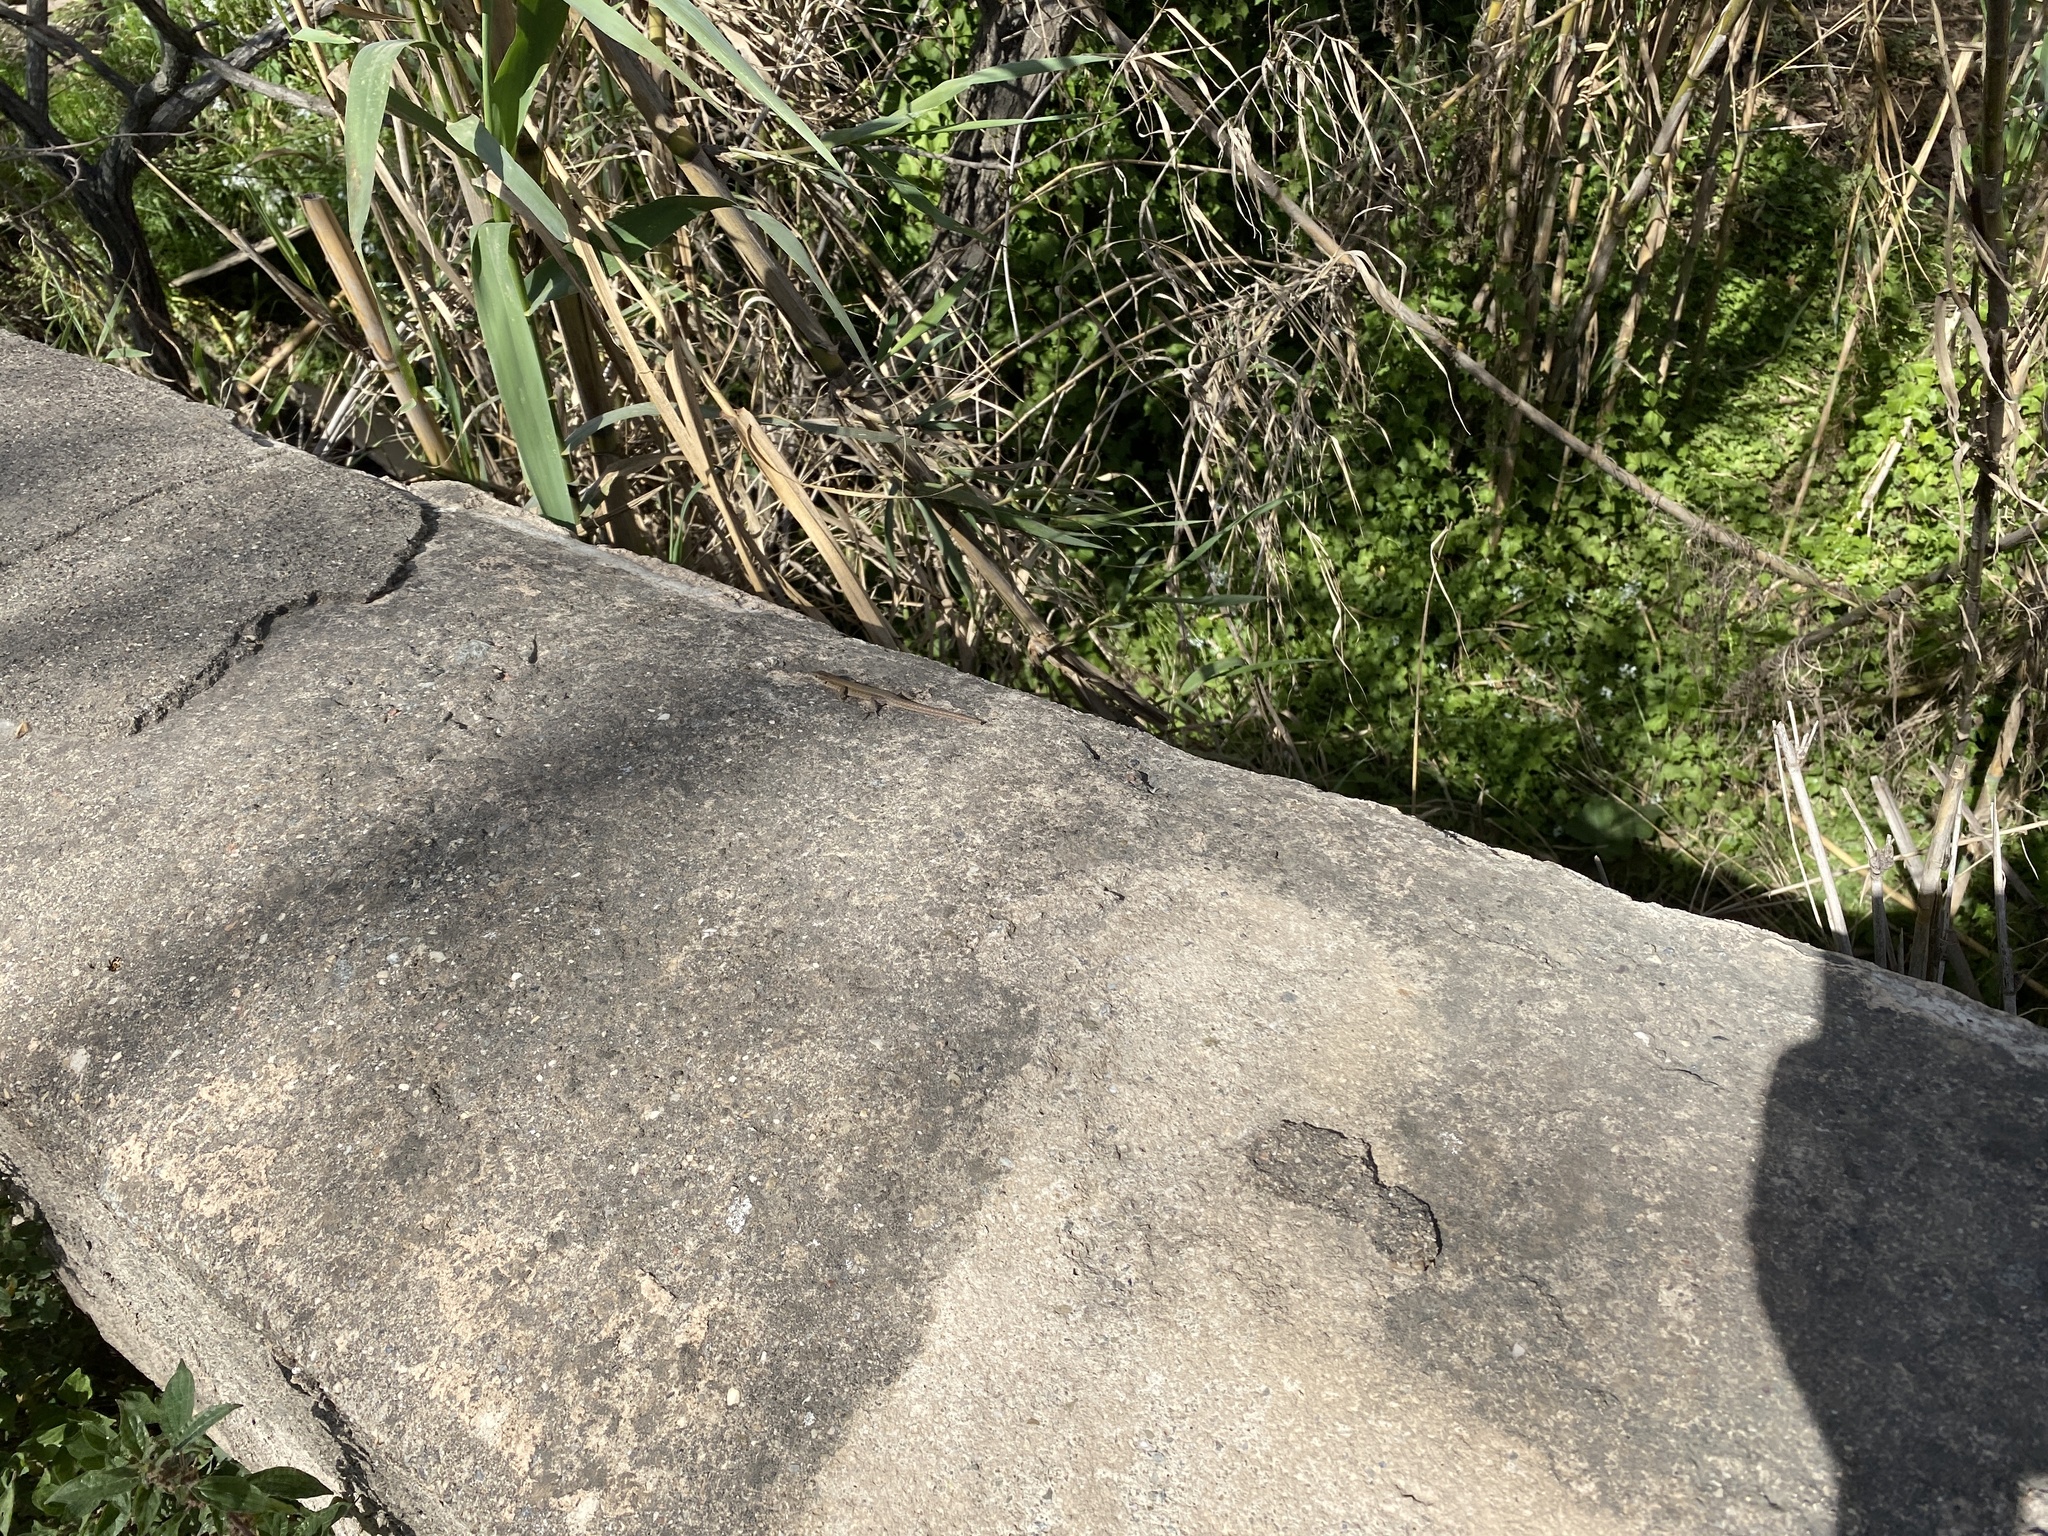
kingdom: Animalia
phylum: Chordata
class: Squamata
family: Lacertidae
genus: Podarcis
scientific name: Podarcis liolepis
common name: Catalonian wall lizard
